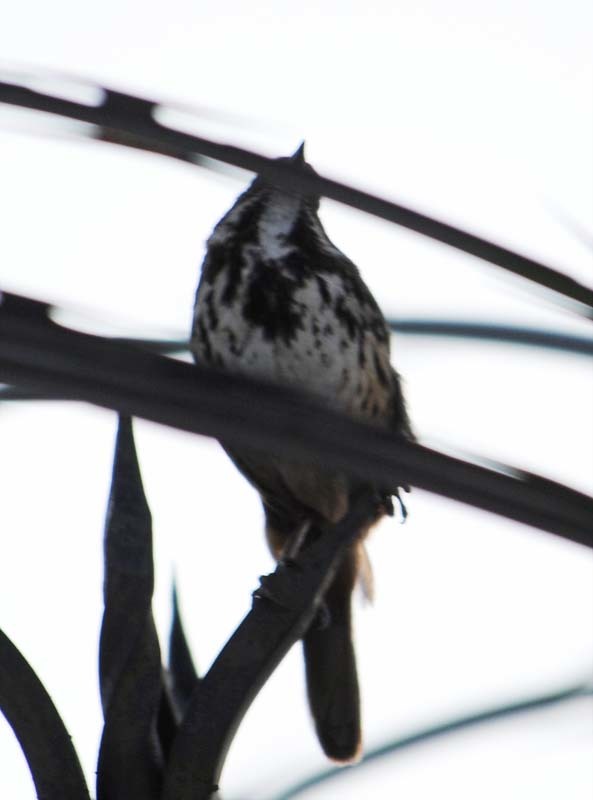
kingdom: Animalia
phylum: Chordata
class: Aves
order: Passeriformes
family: Passerellidae
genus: Melospiza
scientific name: Melospiza melodia
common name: Song sparrow
